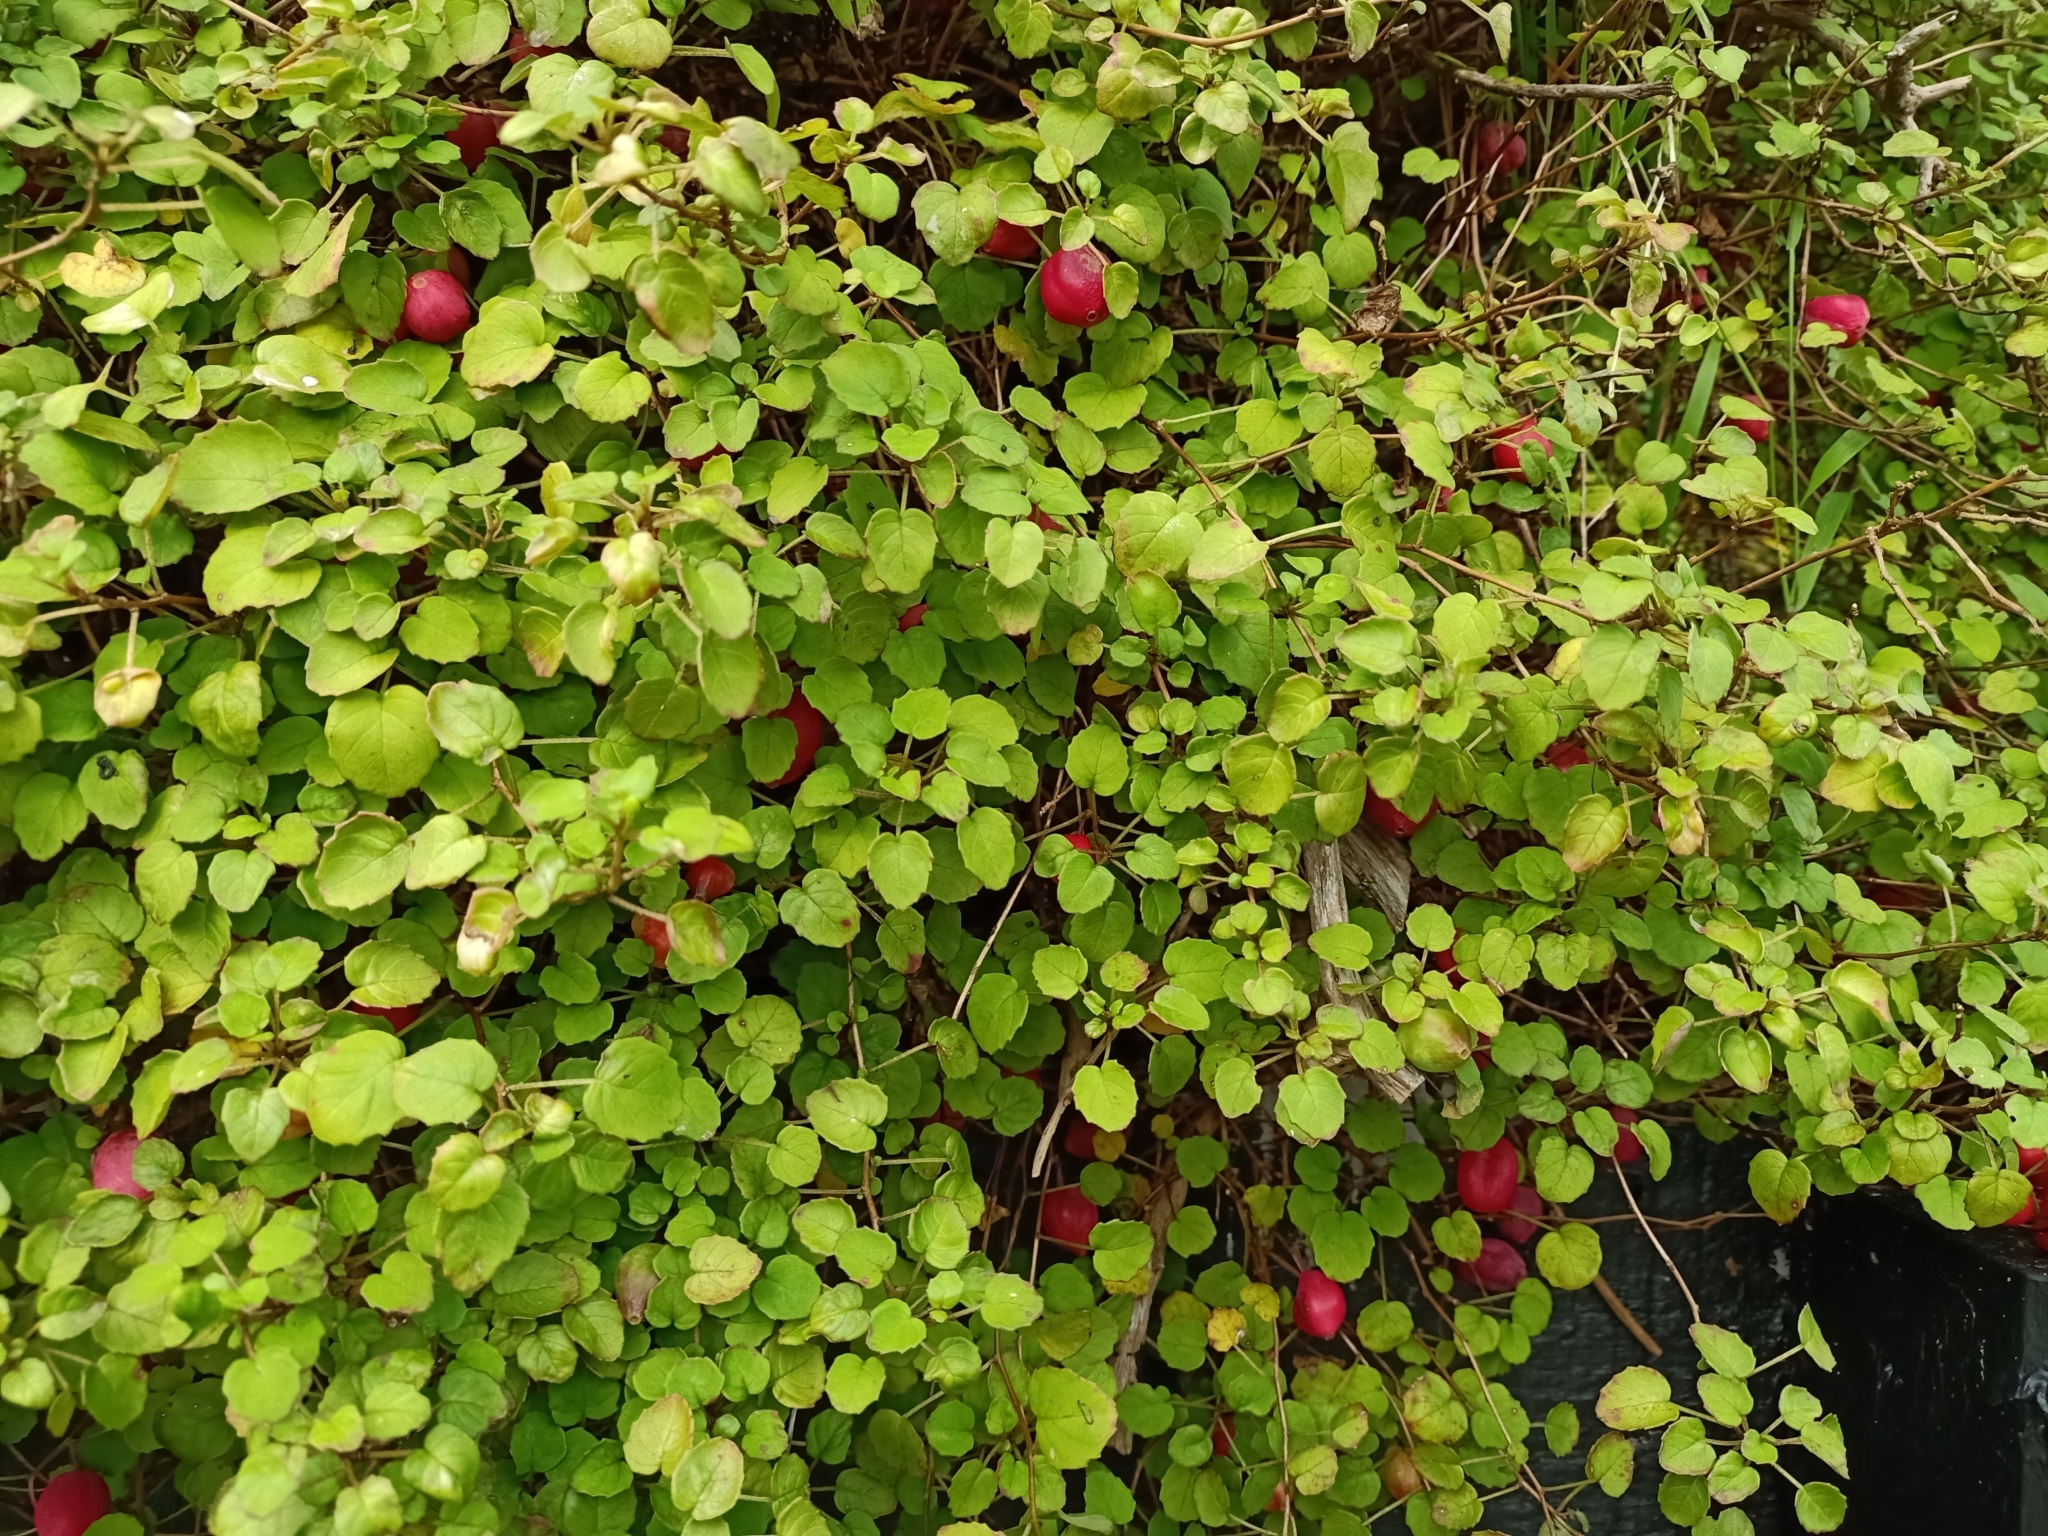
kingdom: Plantae
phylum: Tracheophyta
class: Magnoliopsida
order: Myrtales
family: Onagraceae
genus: Fuchsia
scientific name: Fuchsia procumbens
